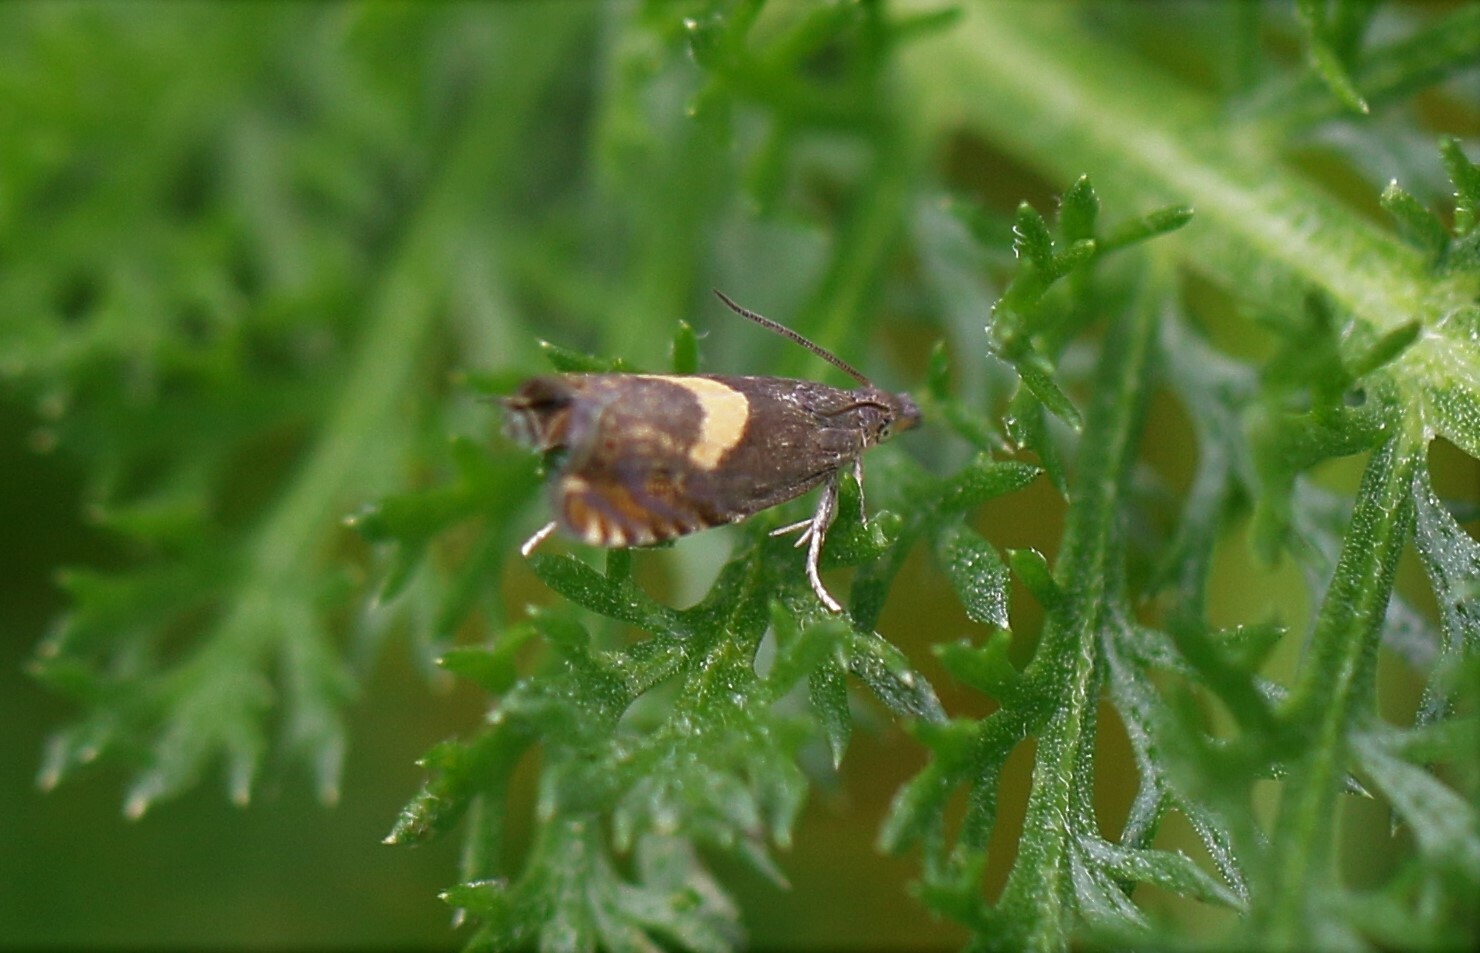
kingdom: Animalia
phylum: Arthropoda
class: Insecta
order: Lepidoptera
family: Tortricidae
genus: Dichrorampha
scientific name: Dichrorampha petiverella
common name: Common drill
